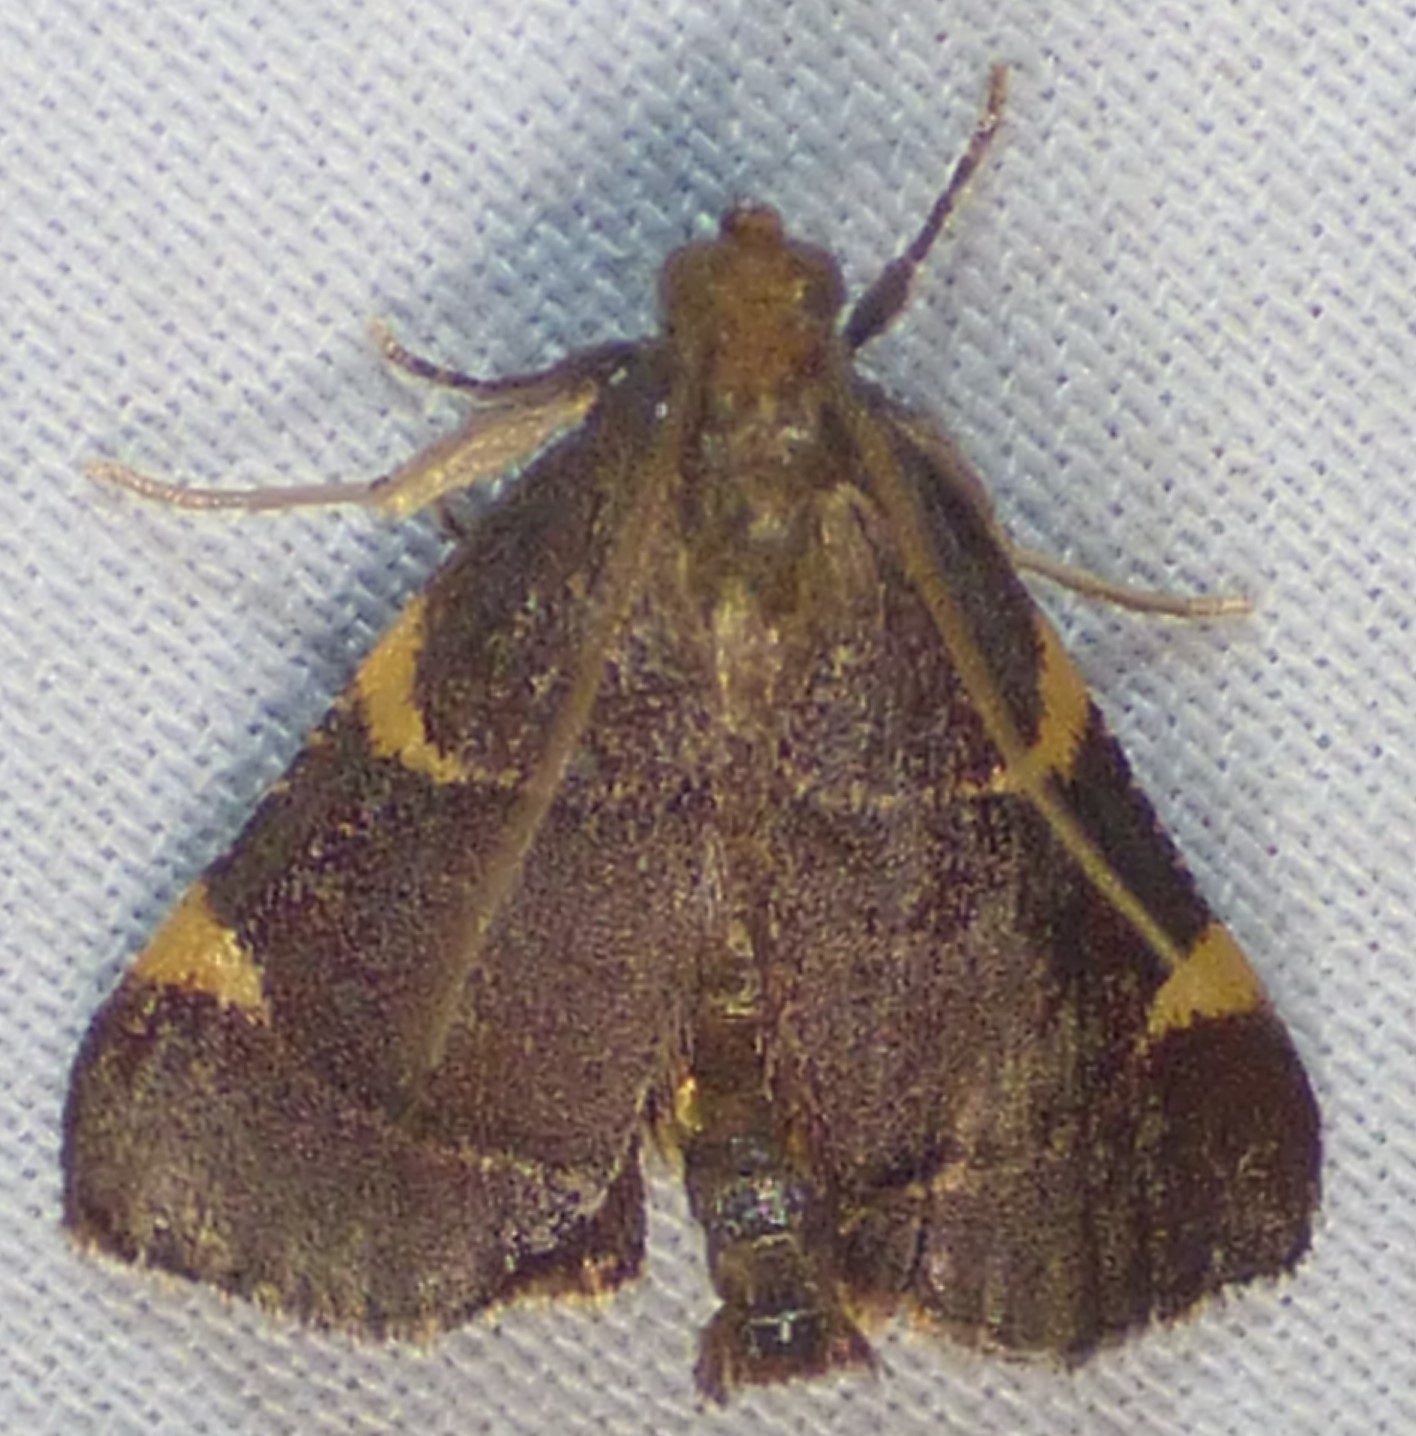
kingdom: Animalia
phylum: Arthropoda
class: Insecta
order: Lepidoptera
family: Pyralidae
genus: Hypsopygia
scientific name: Hypsopygia olinalis
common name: Yellow-fringed dolichomia moth
